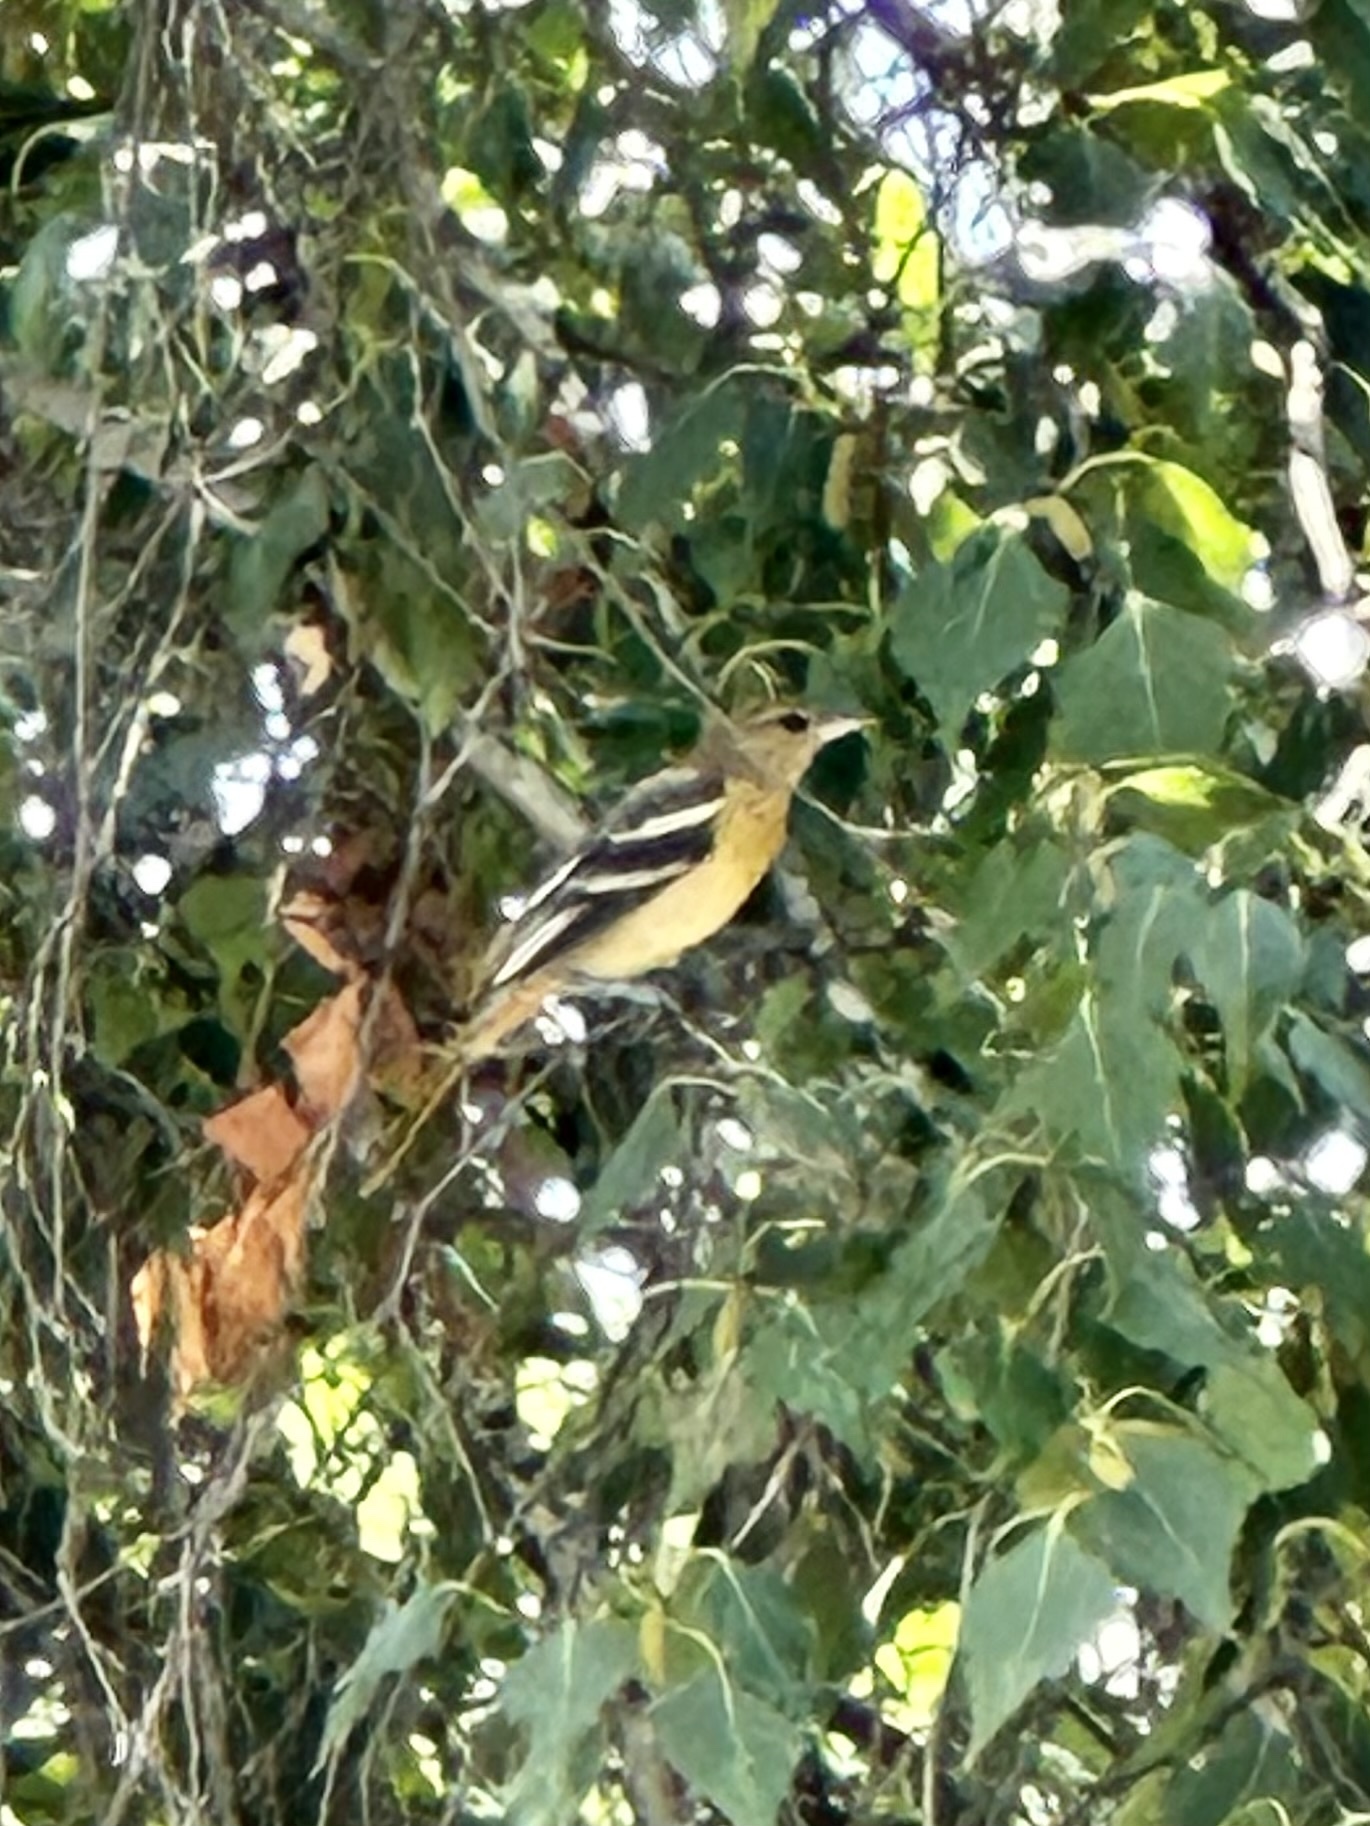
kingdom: Animalia
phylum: Chordata
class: Aves
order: Passeriformes
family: Icteridae
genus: Icterus
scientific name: Icterus galbula
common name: Baltimore oriole
